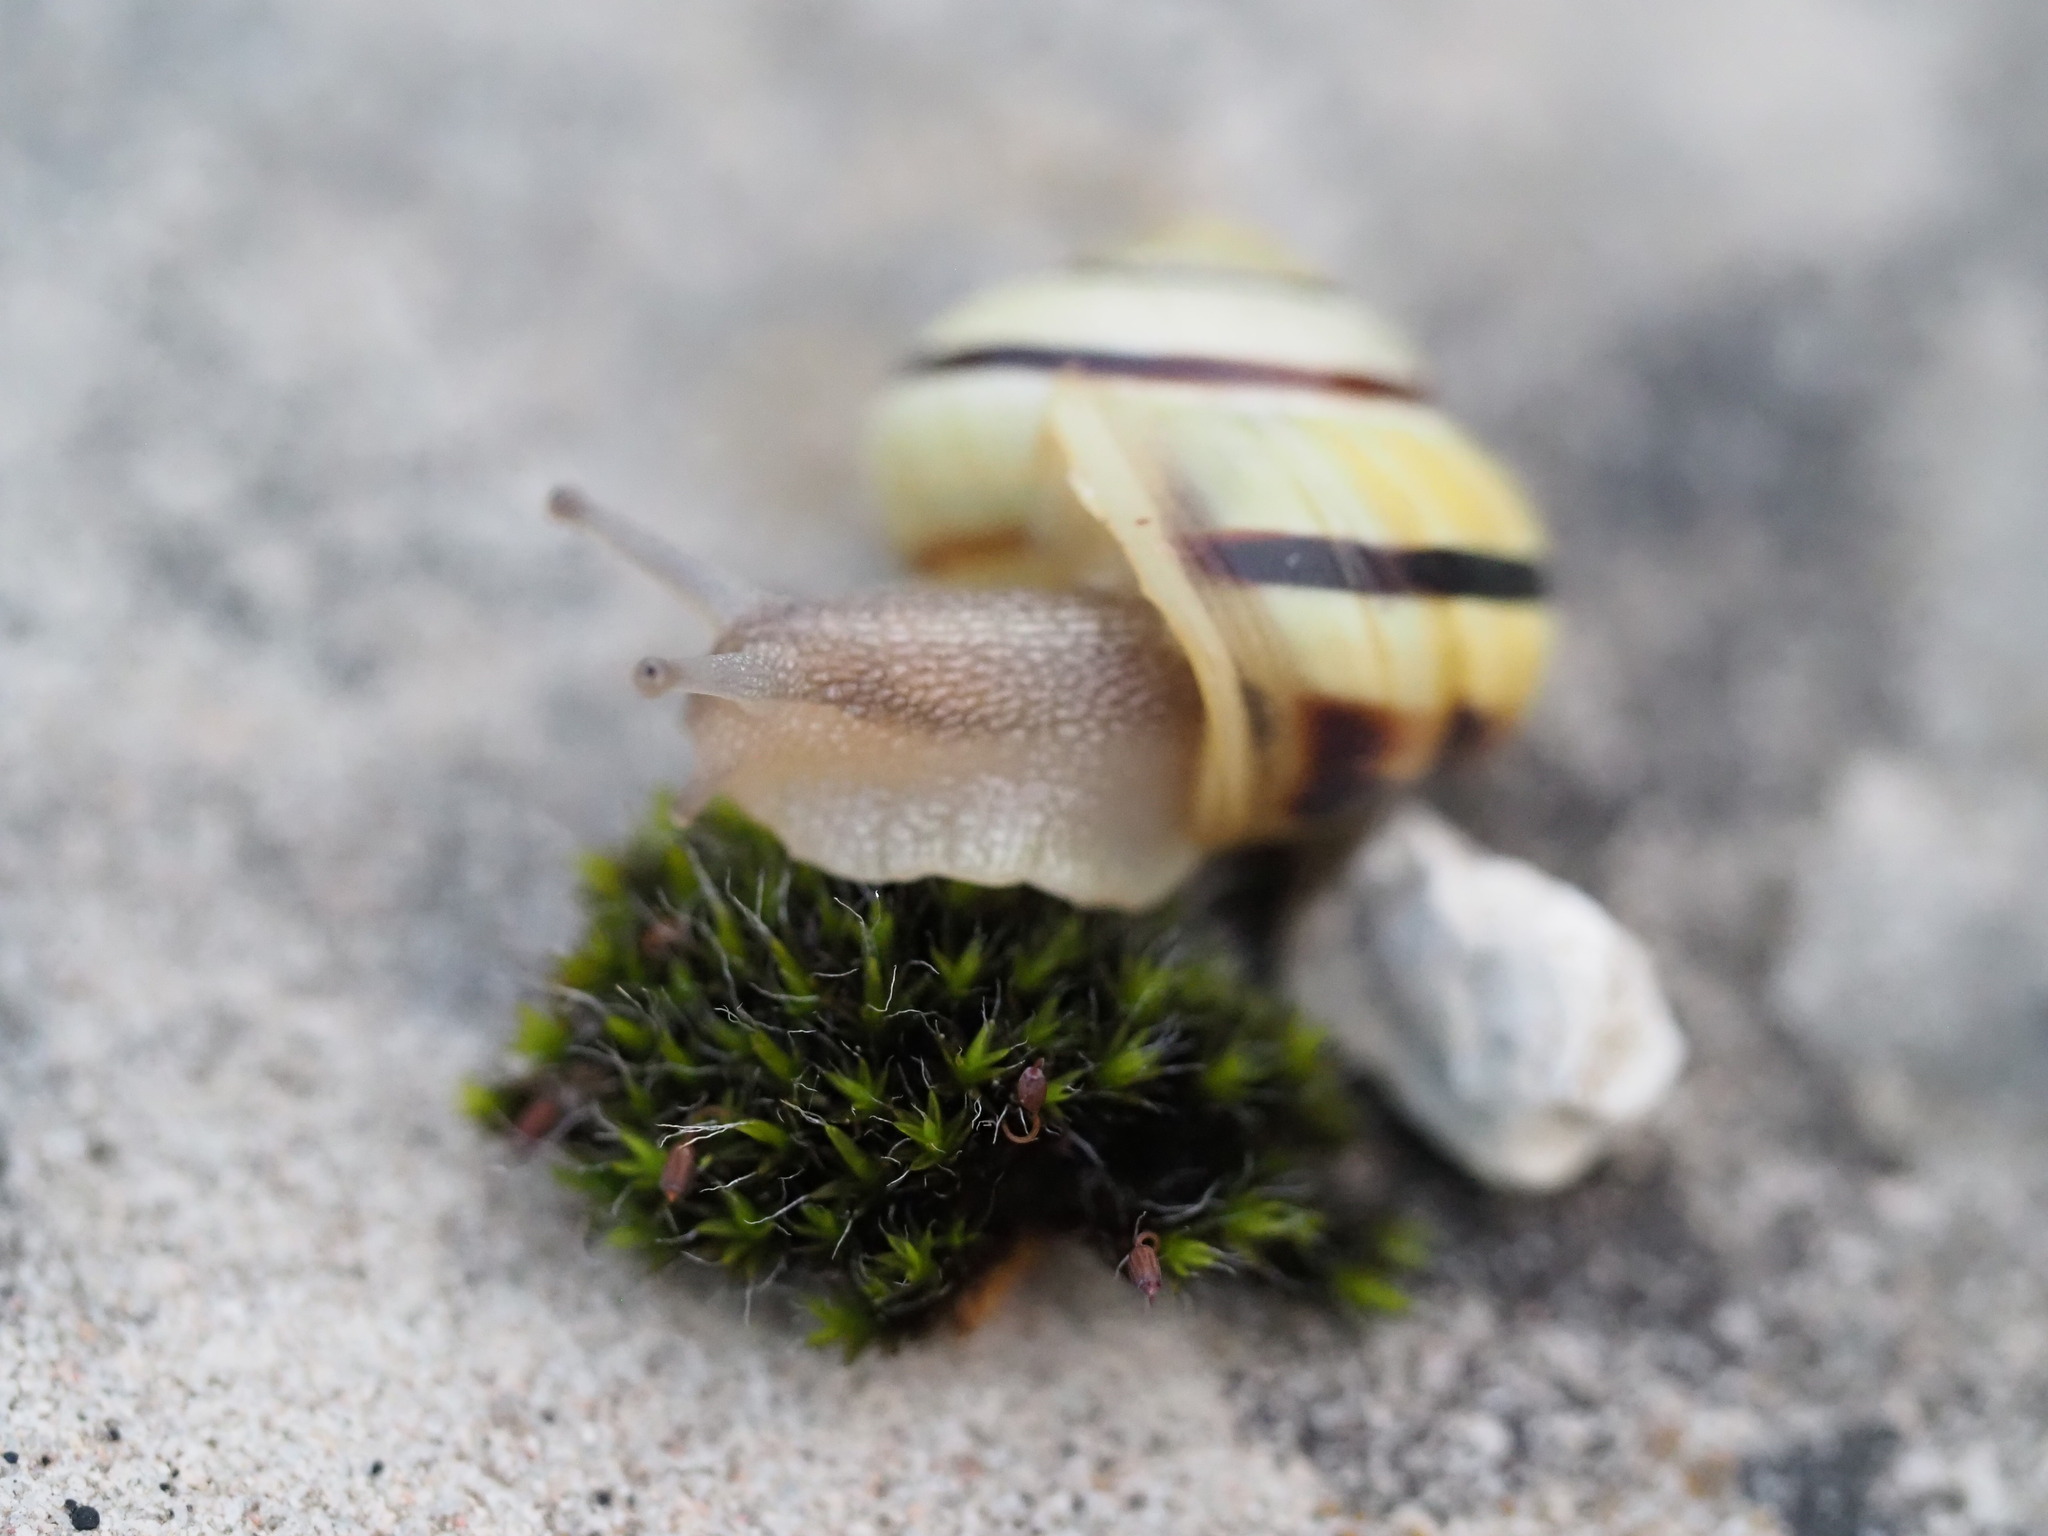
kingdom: Animalia
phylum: Mollusca
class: Gastropoda
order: Stylommatophora
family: Helicidae
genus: Cepaea
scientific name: Cepaea nemoralis
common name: Grovesnail
